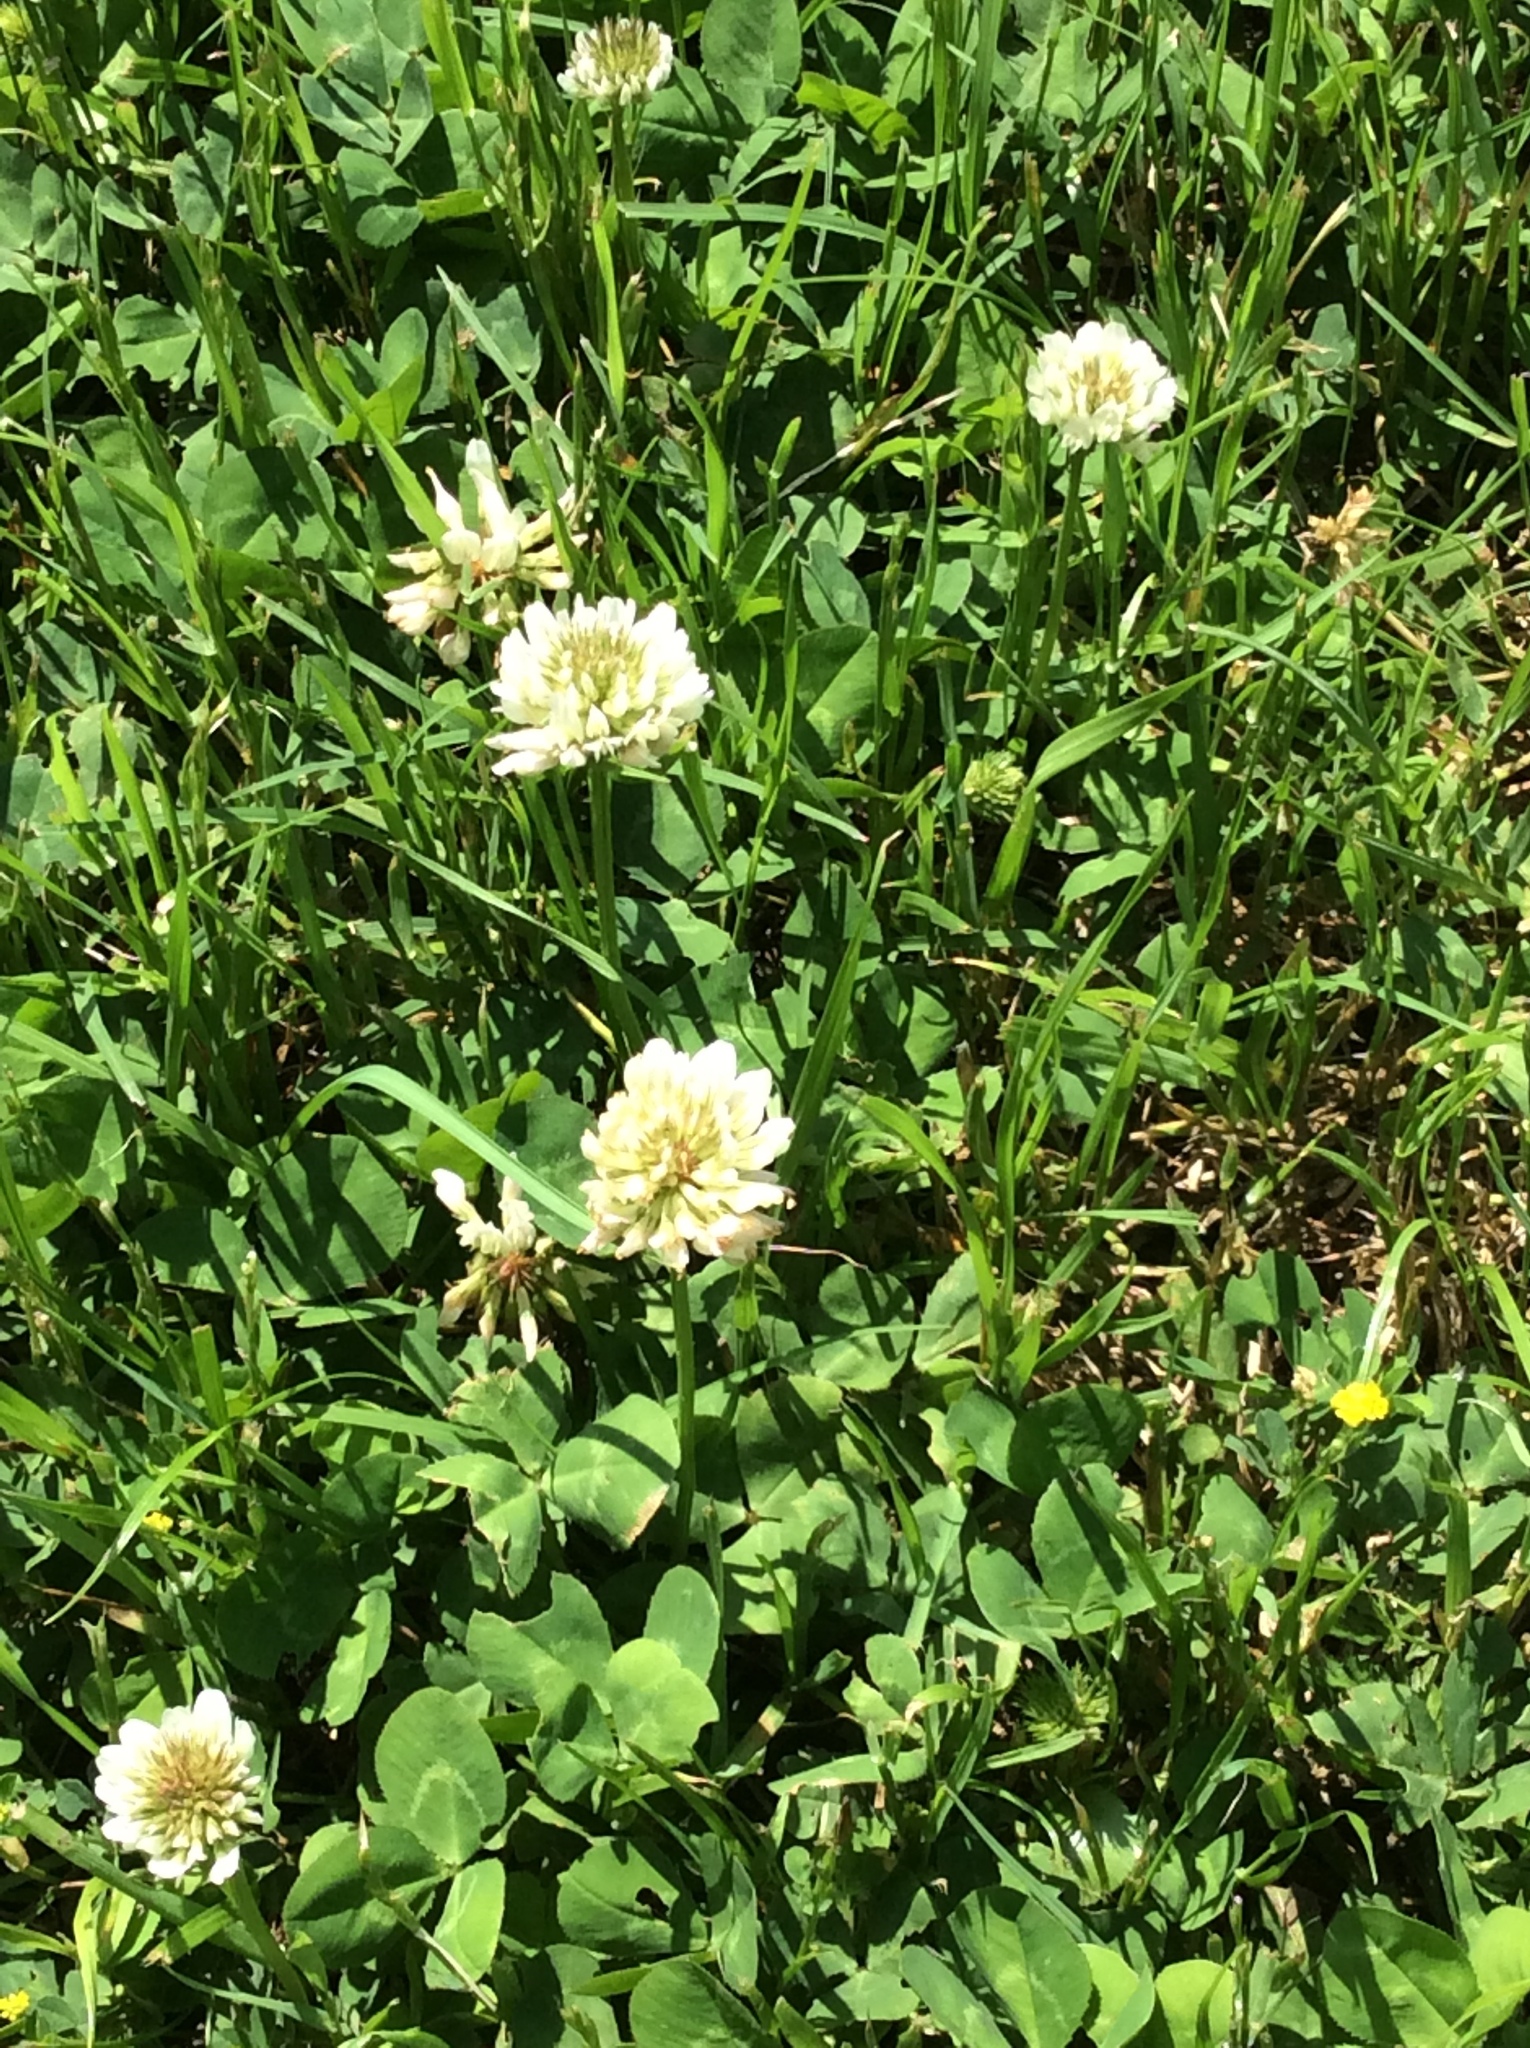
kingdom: Plantae
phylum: Tracheophyta
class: Magnoliopsida
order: Fabales
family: Fabaceae
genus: Trifolium
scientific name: Trifolium repens
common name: White clover
